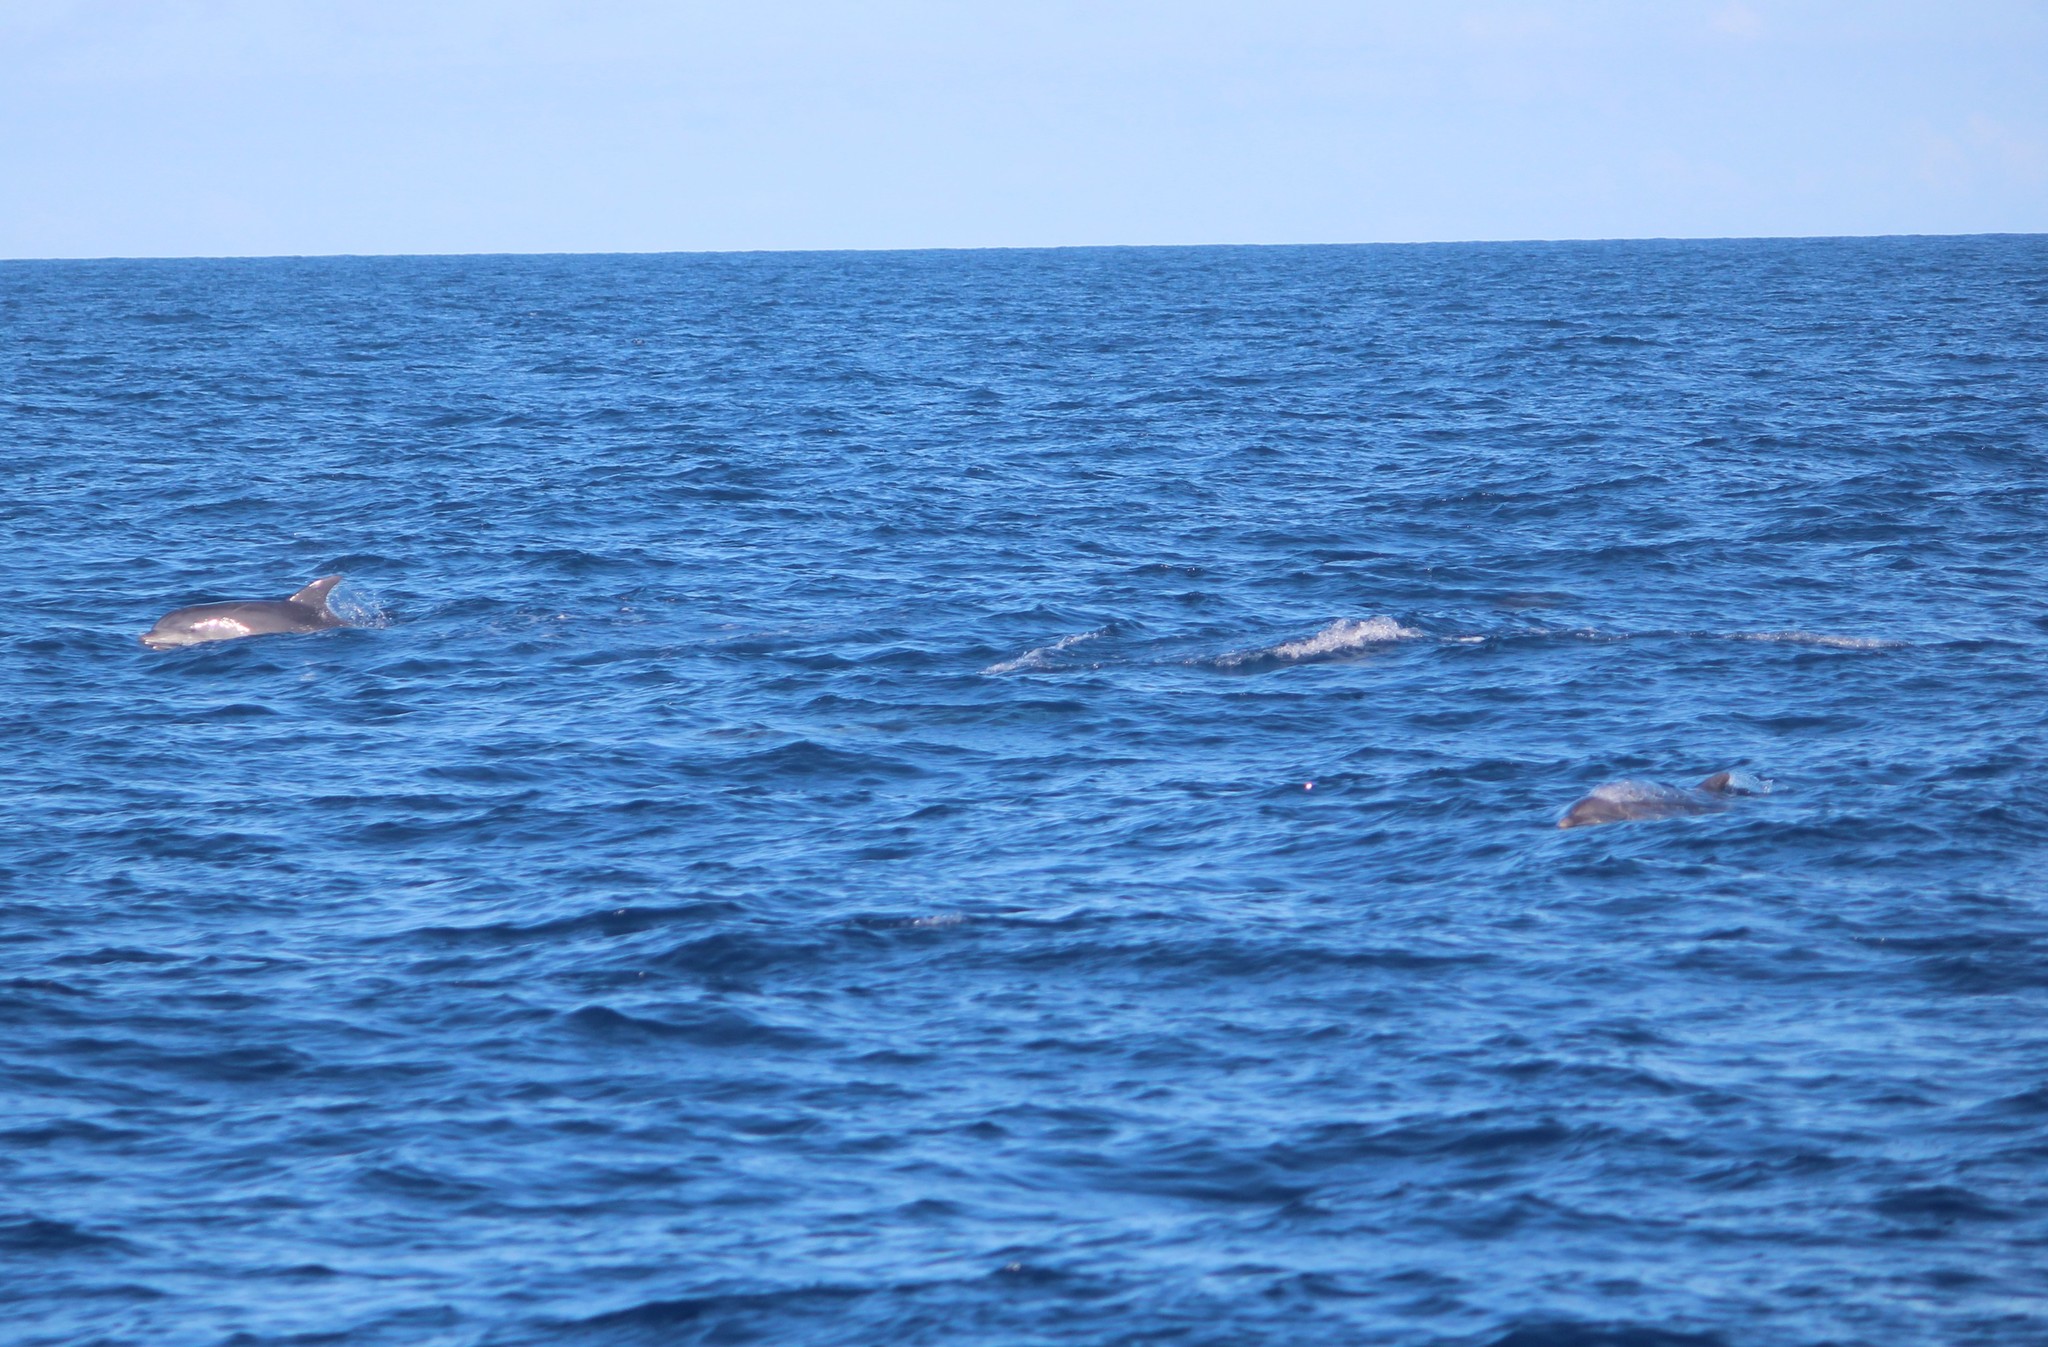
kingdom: Animalia
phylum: Chordata
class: Mammalia
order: Cetacea
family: Delphinidae
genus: Tursiops
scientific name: Tursiops truncatus
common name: Bottlenose dolphin
